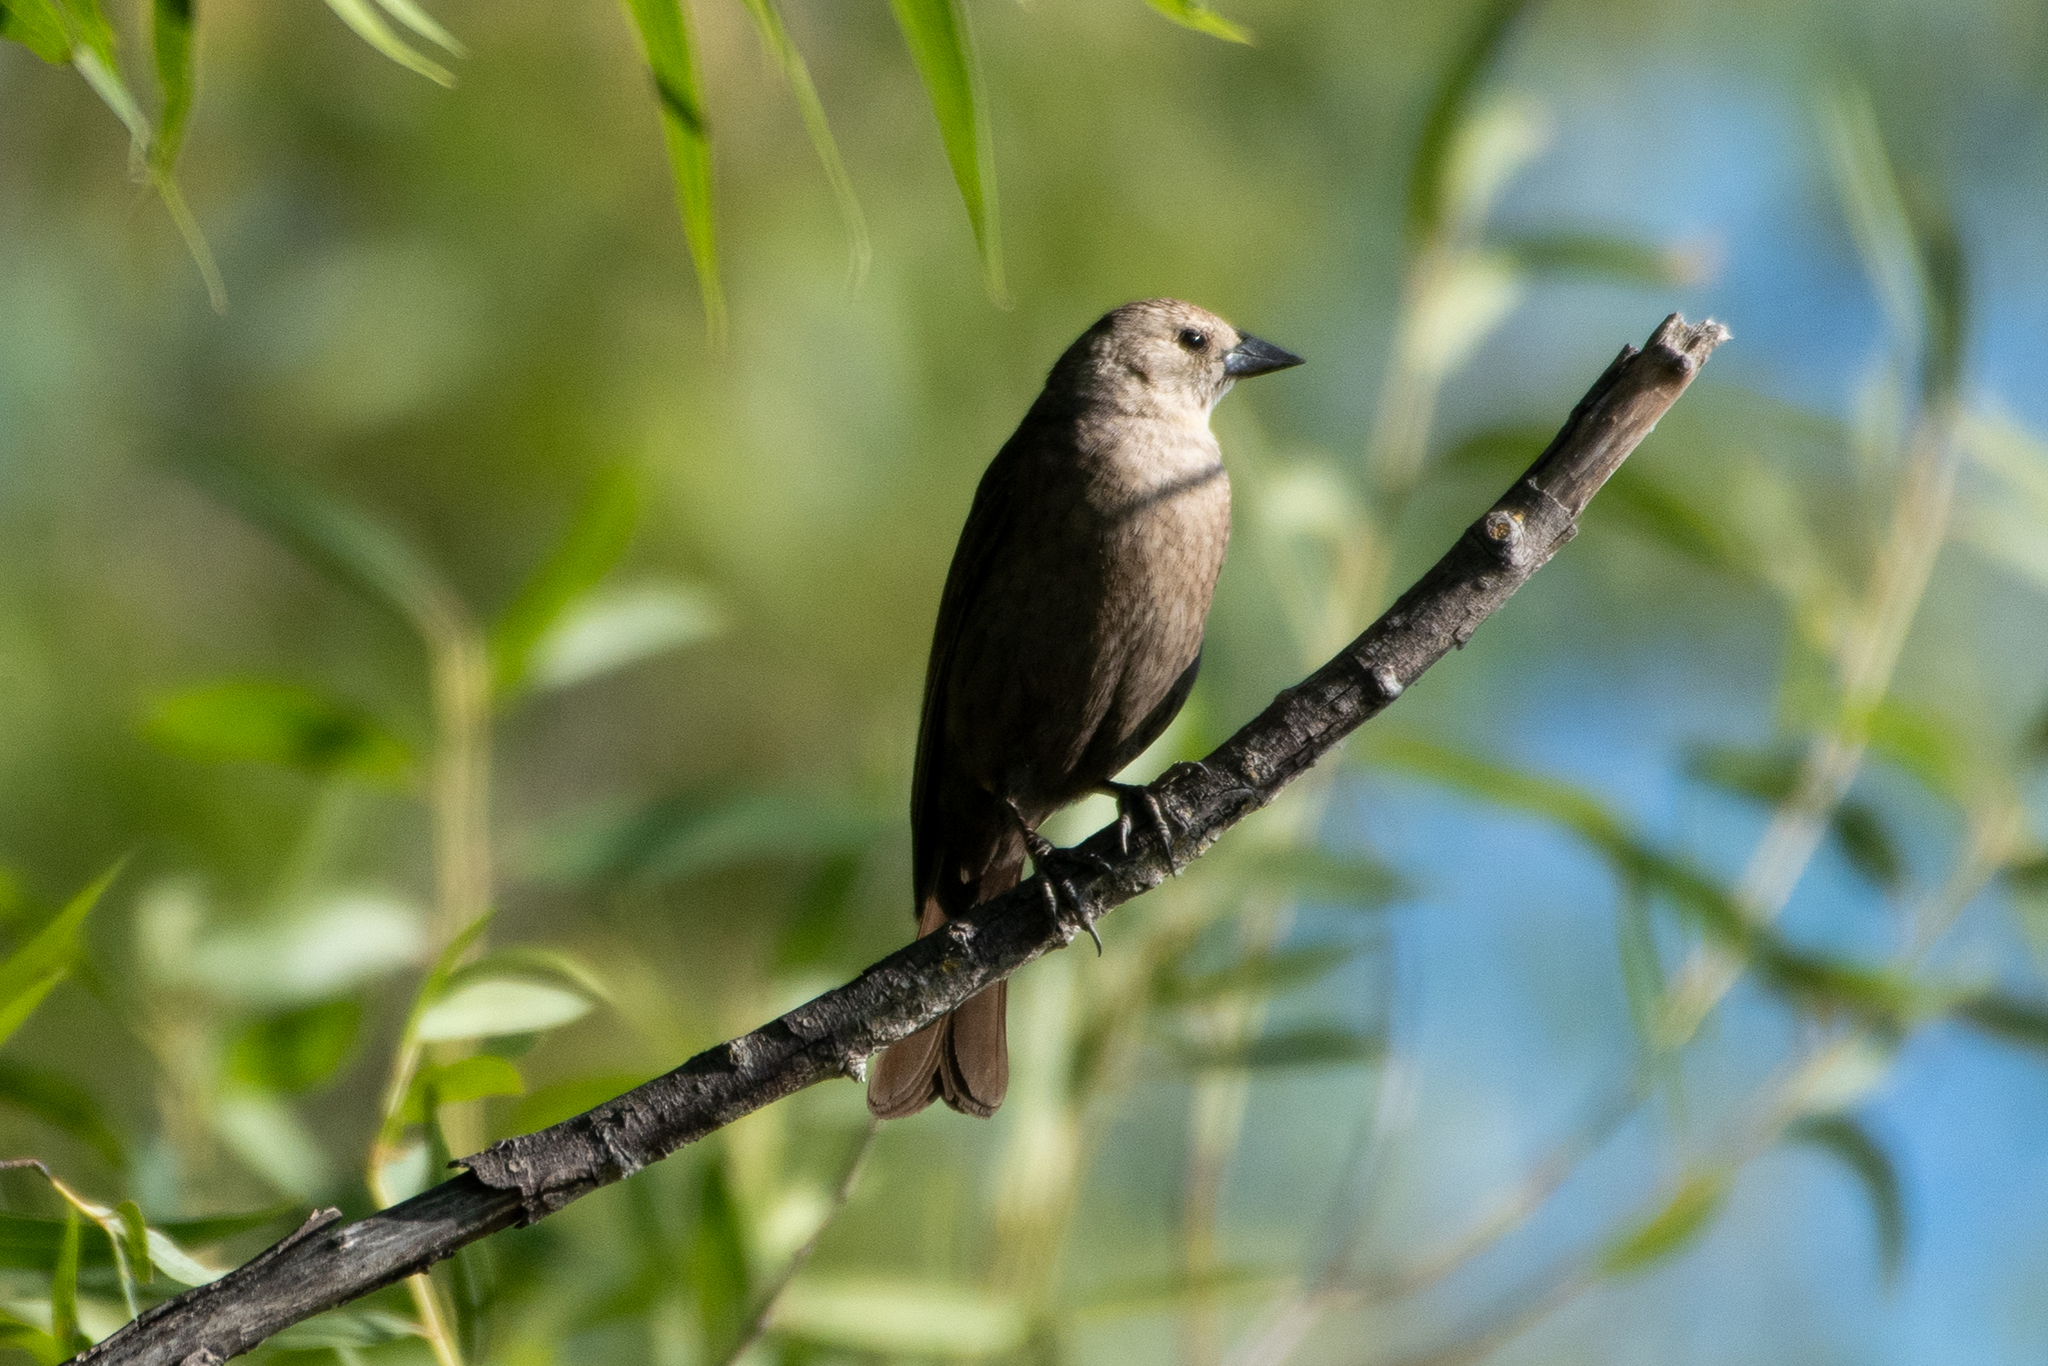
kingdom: Animalia
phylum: Chordata
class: Aves
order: Passeriformes
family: Icteridae
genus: Molothrus
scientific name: Molothrus ater
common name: Brown-headed cowbird
